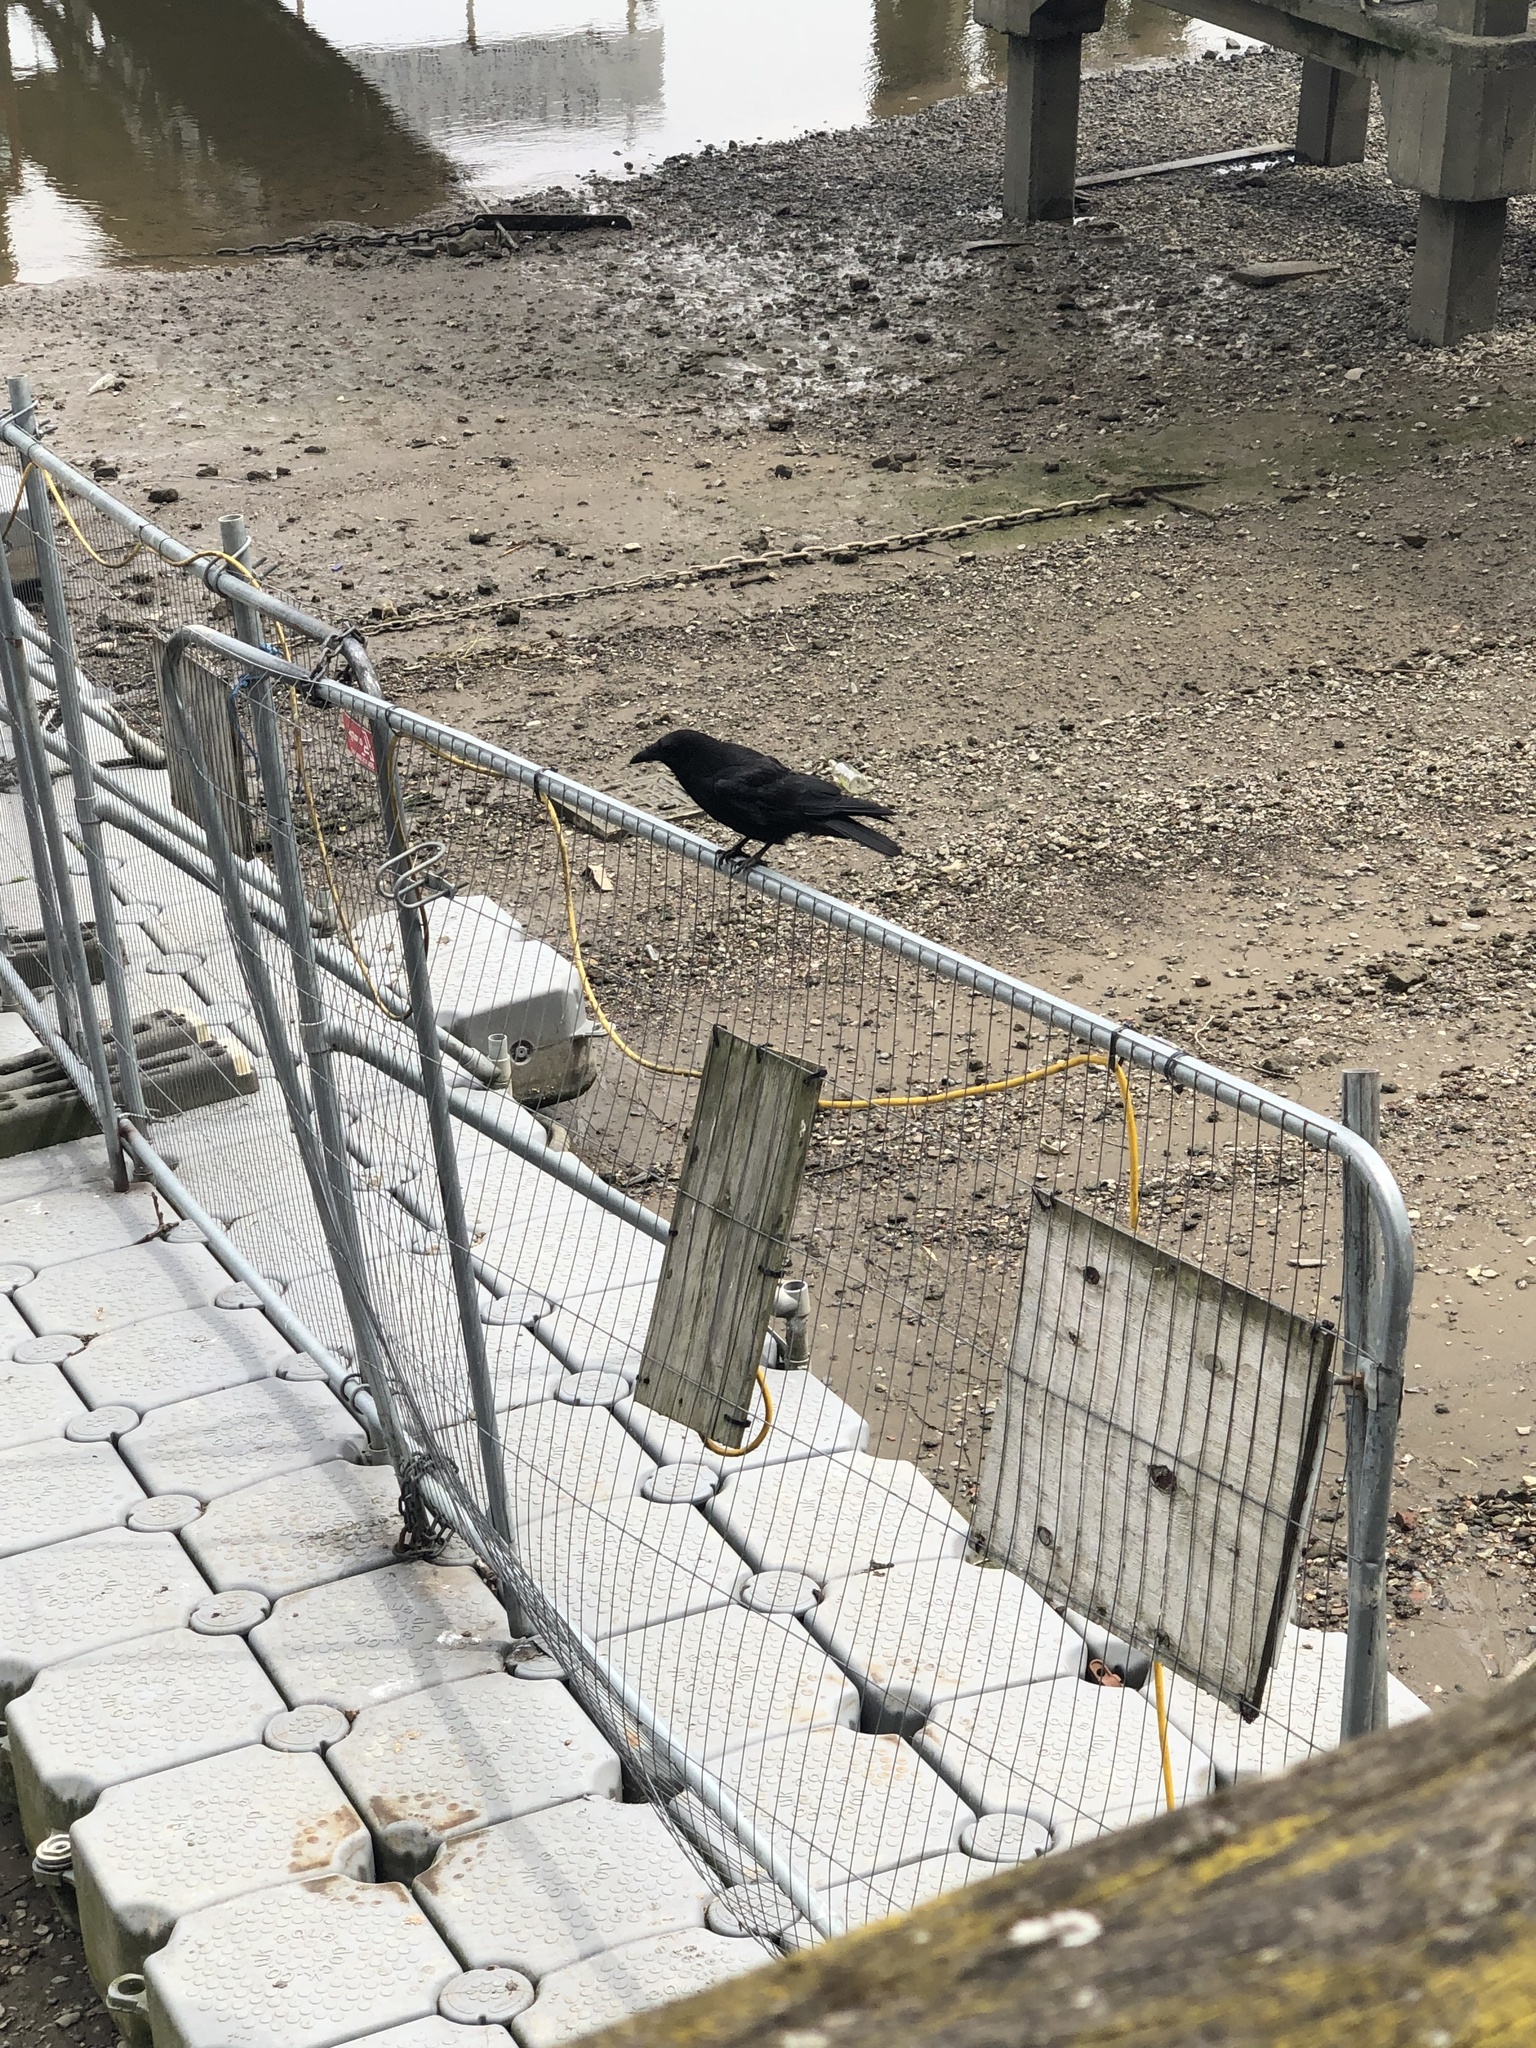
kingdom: Animalia
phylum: Chordata
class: Aves
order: Passeriformes
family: Corvidae
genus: Corvus
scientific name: Corvus corone
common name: Carrion crow
